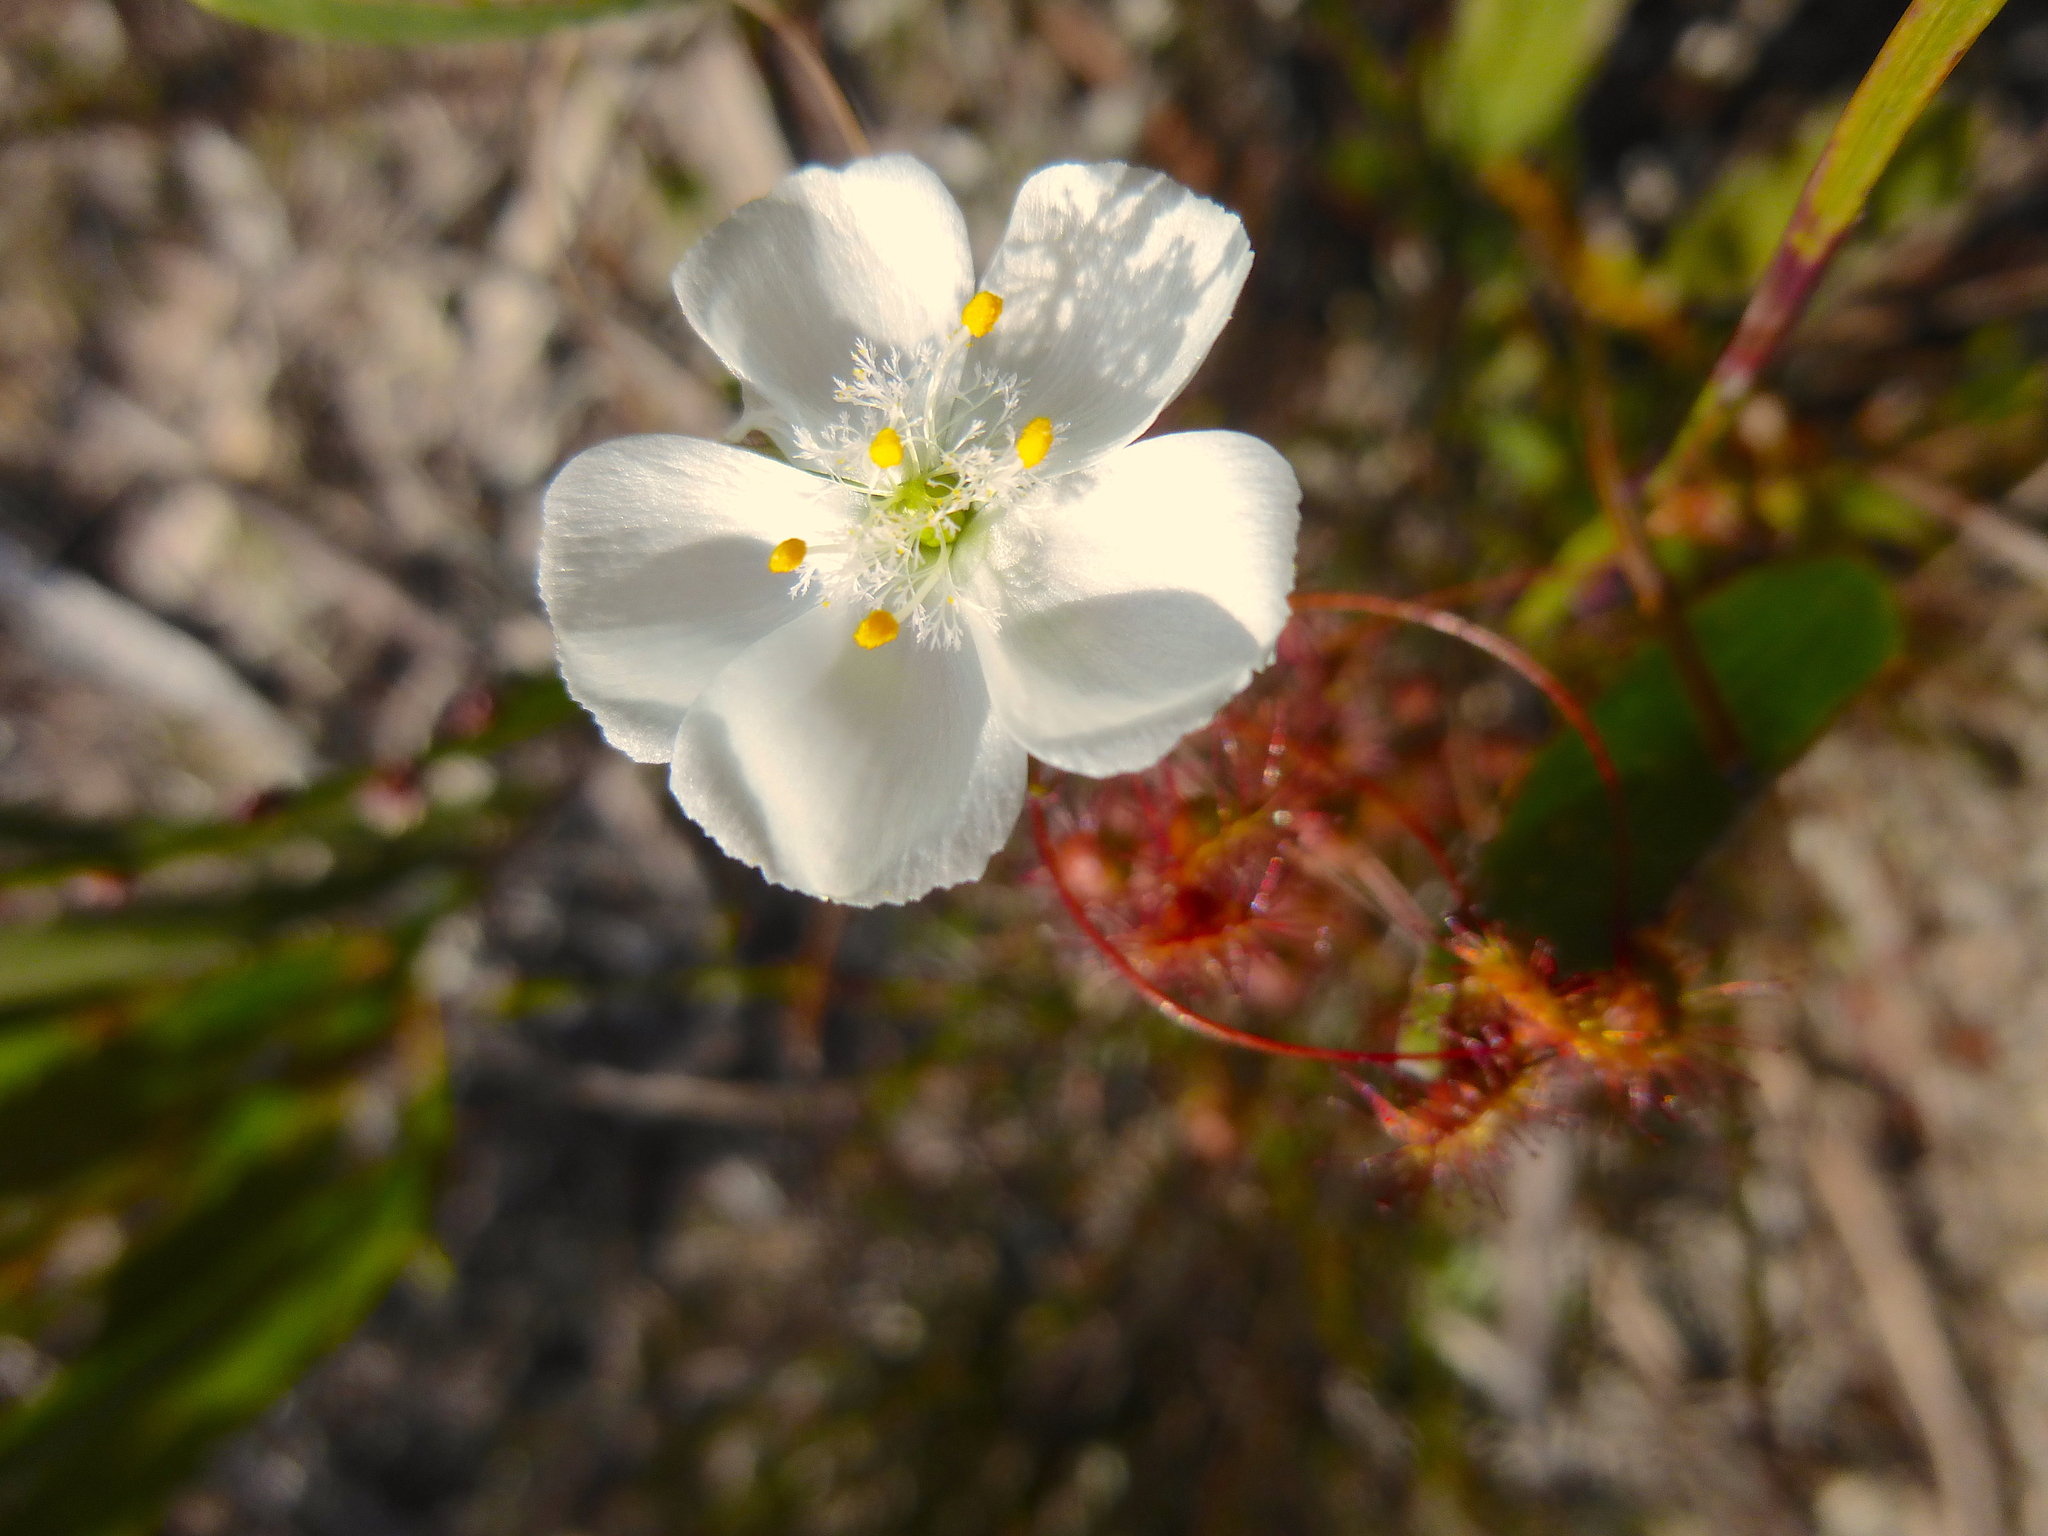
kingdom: Plantae
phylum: Tracheophyta
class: Magnoliopsida
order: Caryophyllales
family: Droseraceae
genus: Drosera
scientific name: Drosera planchonii
